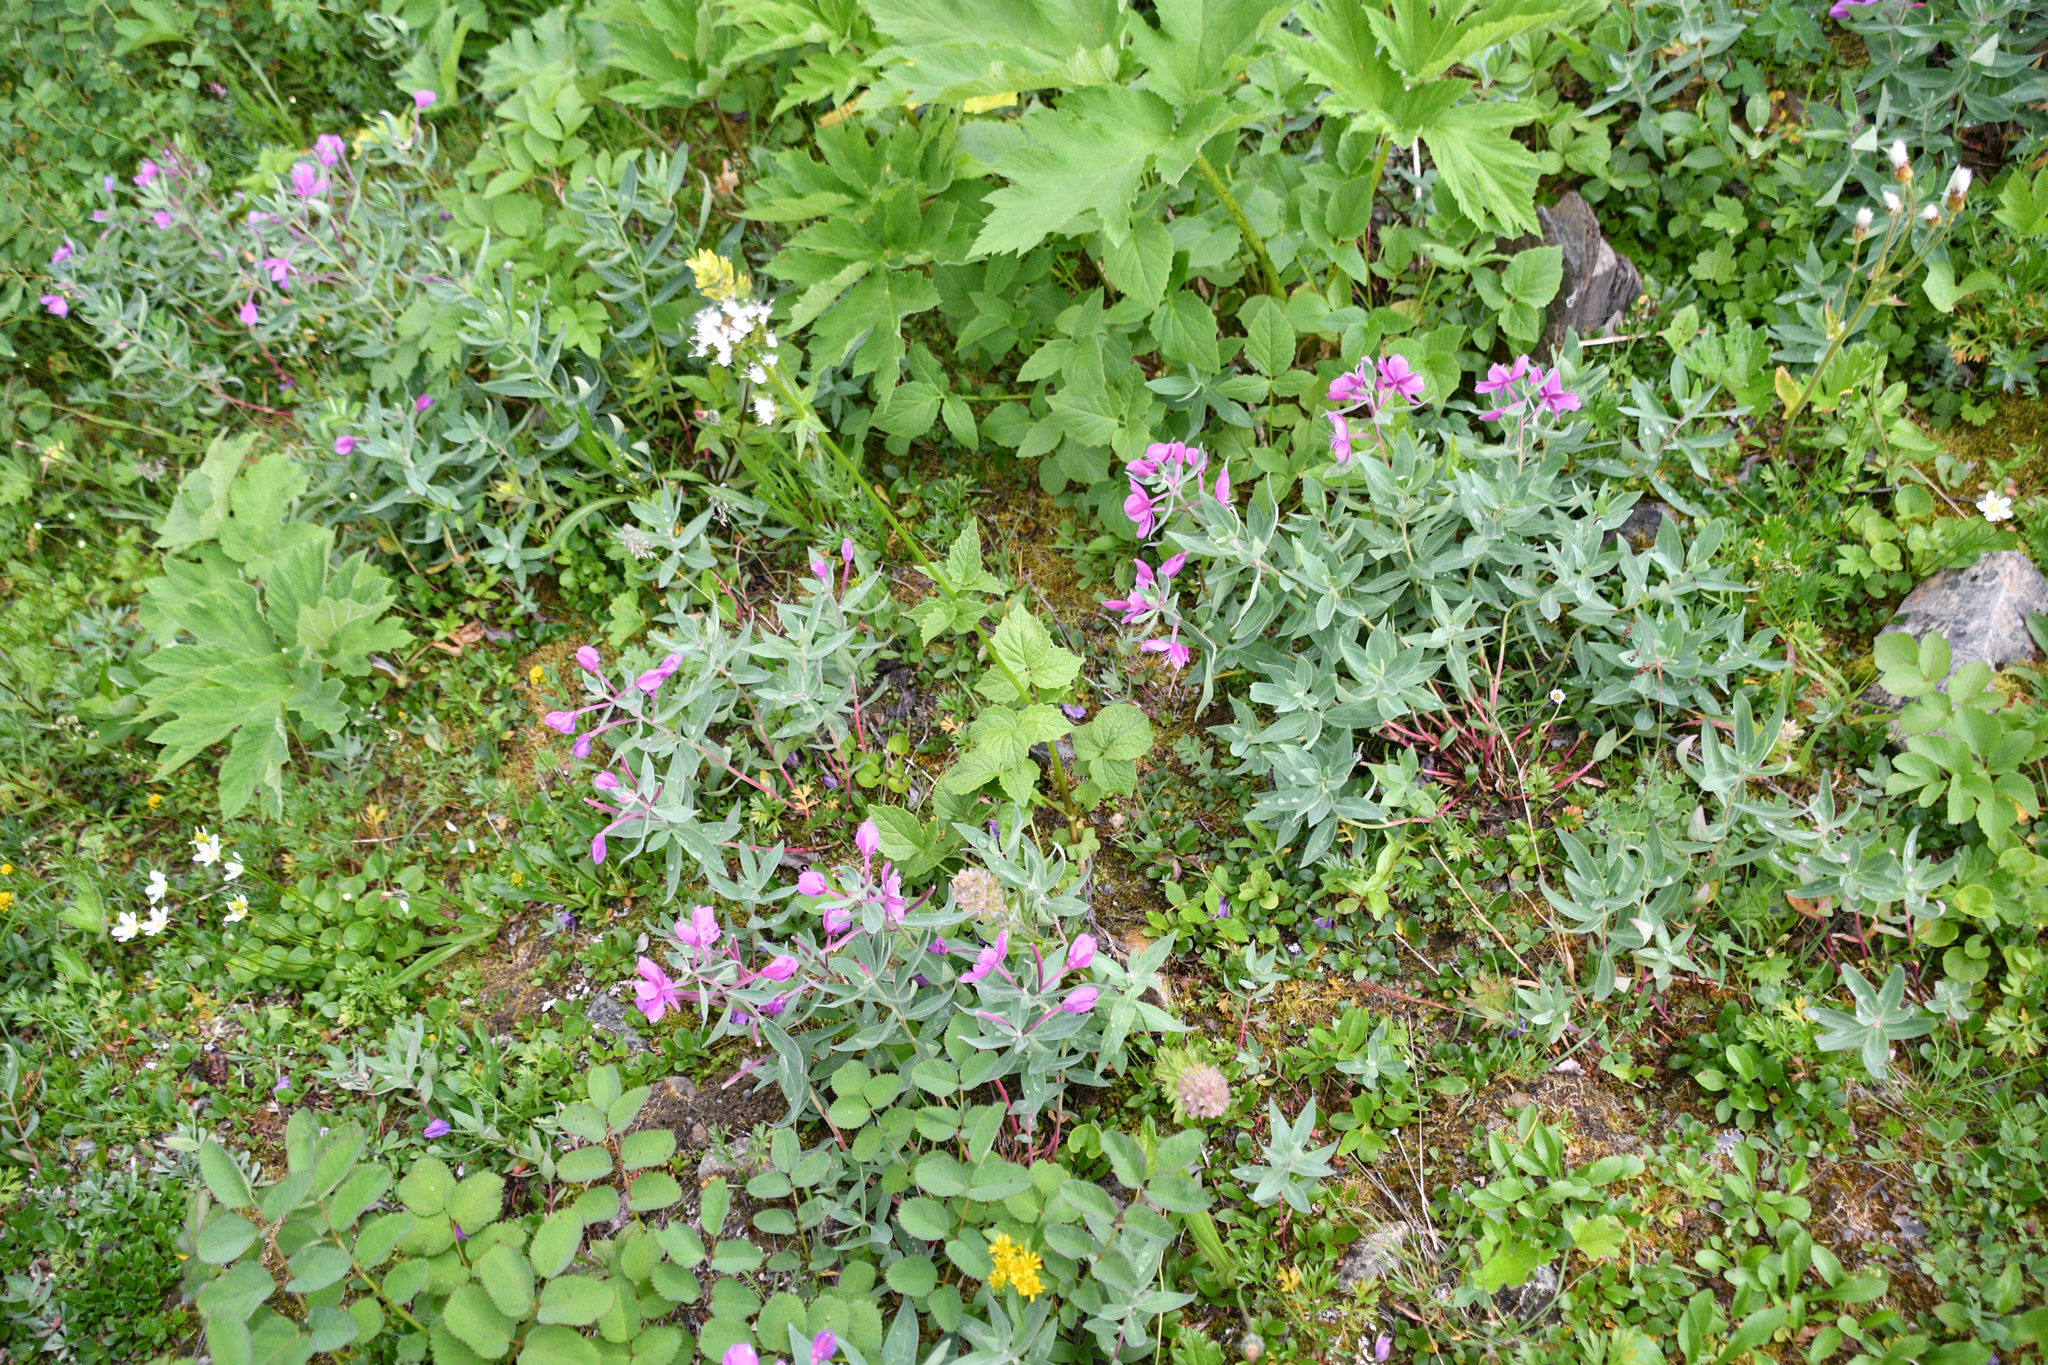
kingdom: Plantae
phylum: Tracheophyta
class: Magnoliopsida
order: Myrtales
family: Onagraceae
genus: Chamaenerion
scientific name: Chamaenerion latifolium
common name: Dwarf fireweed
